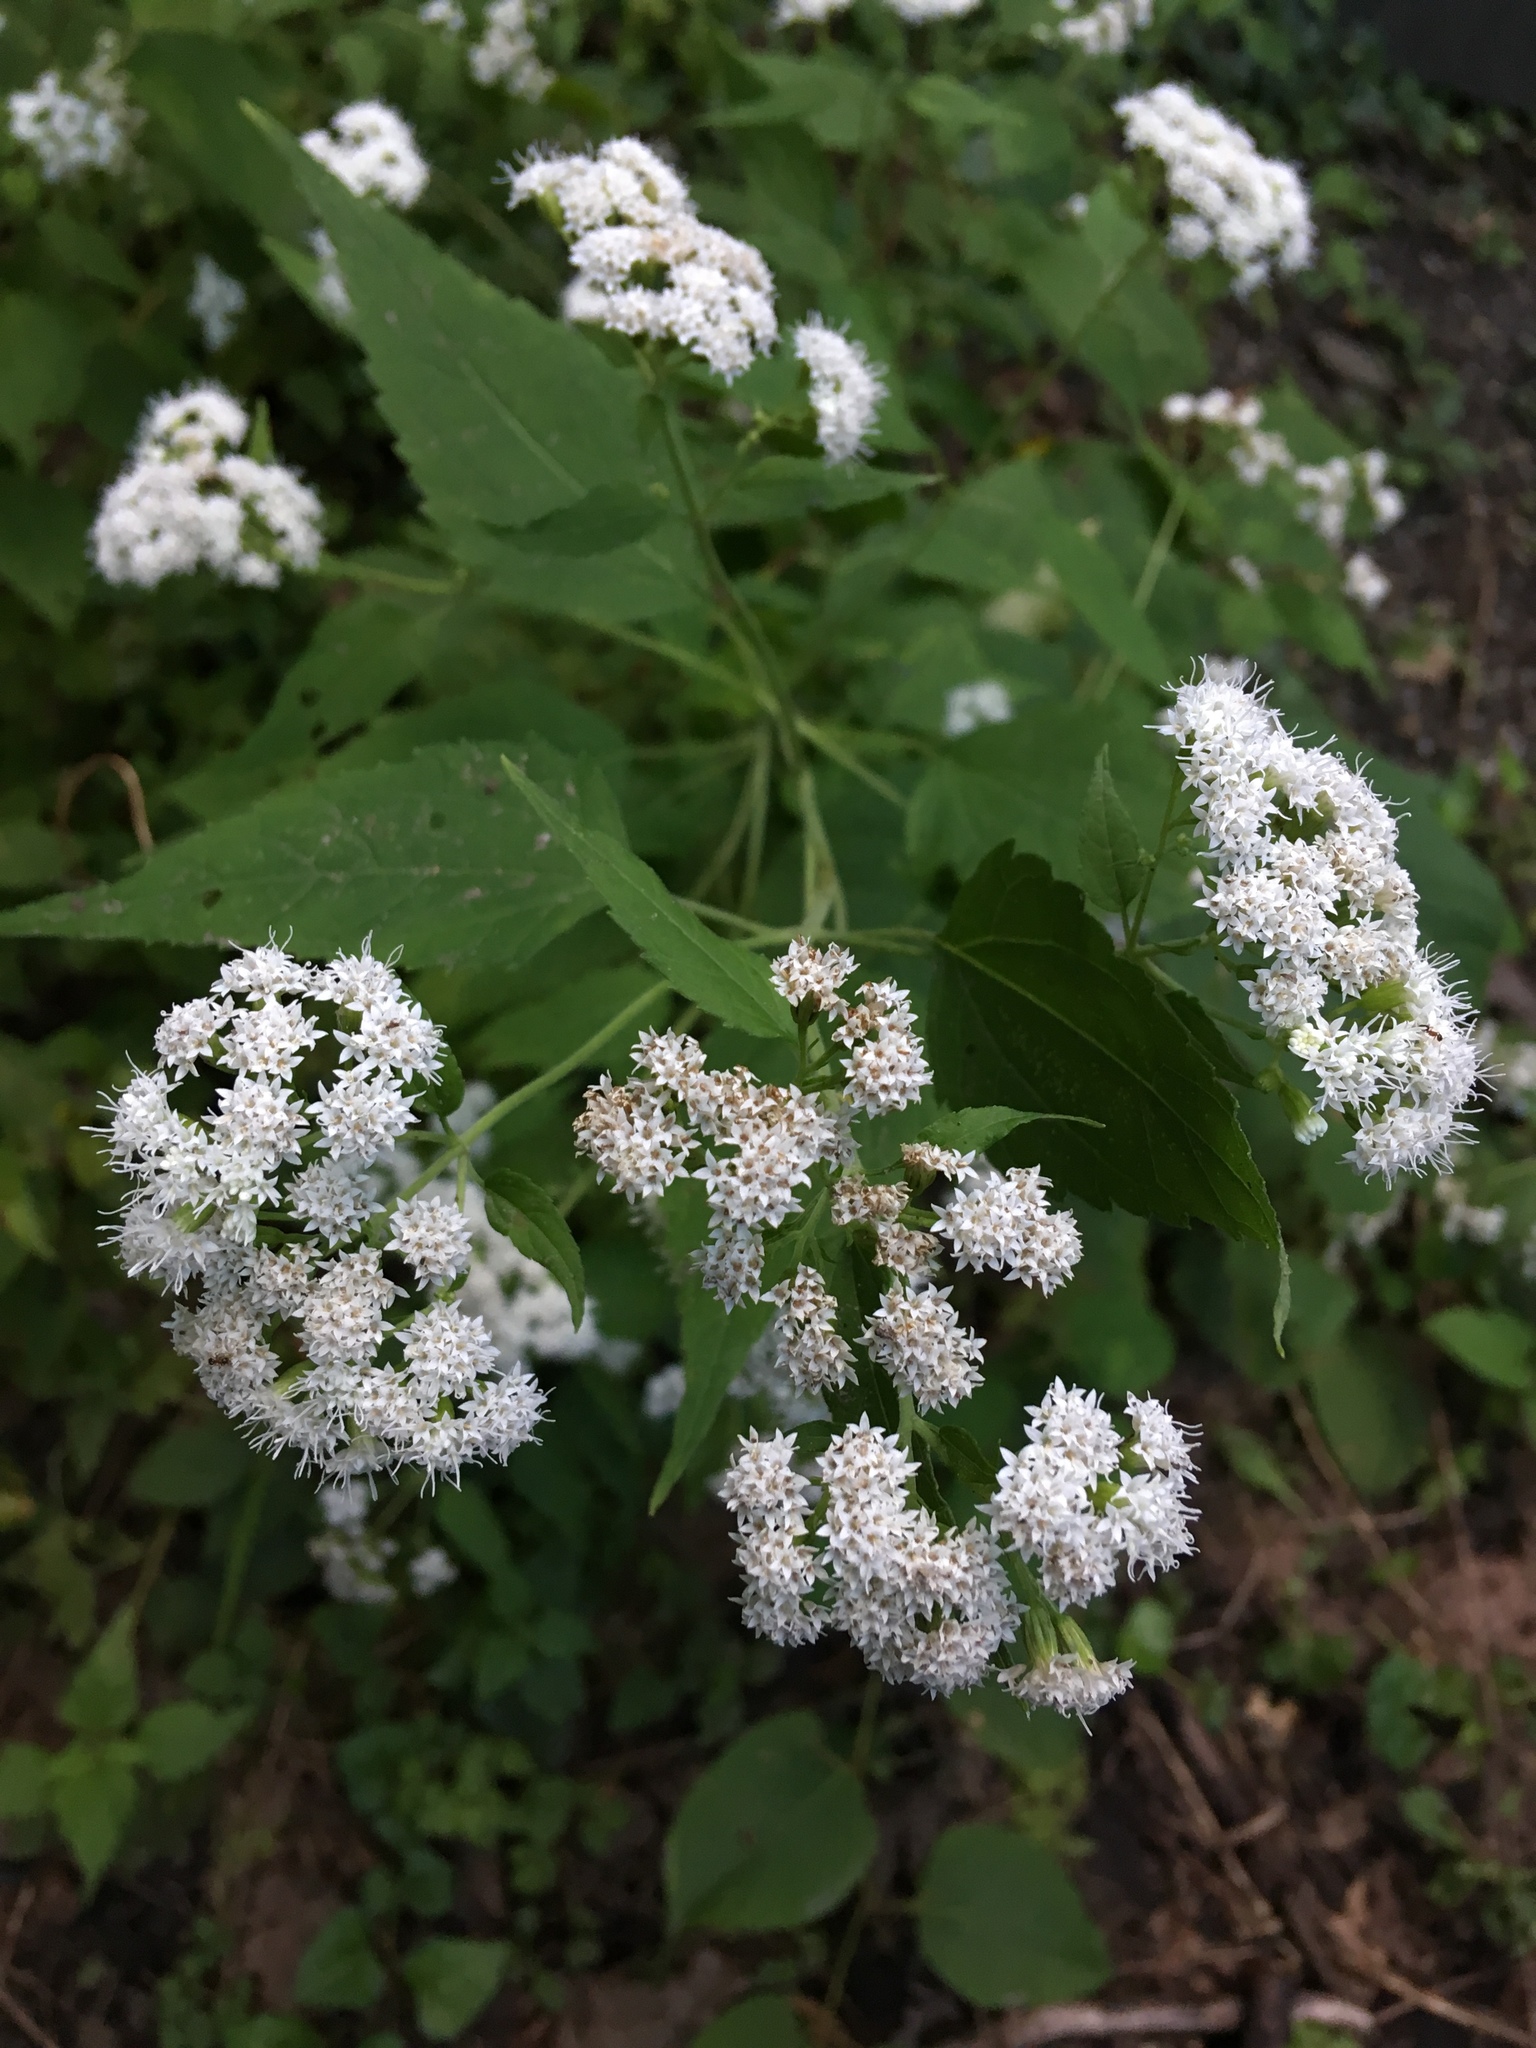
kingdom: Plantae
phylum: Tracheophyta
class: Magnoliopsida
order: Asterales
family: Asteraceae
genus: Ageratina
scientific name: Ageratina altissima
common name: White snakeroot
